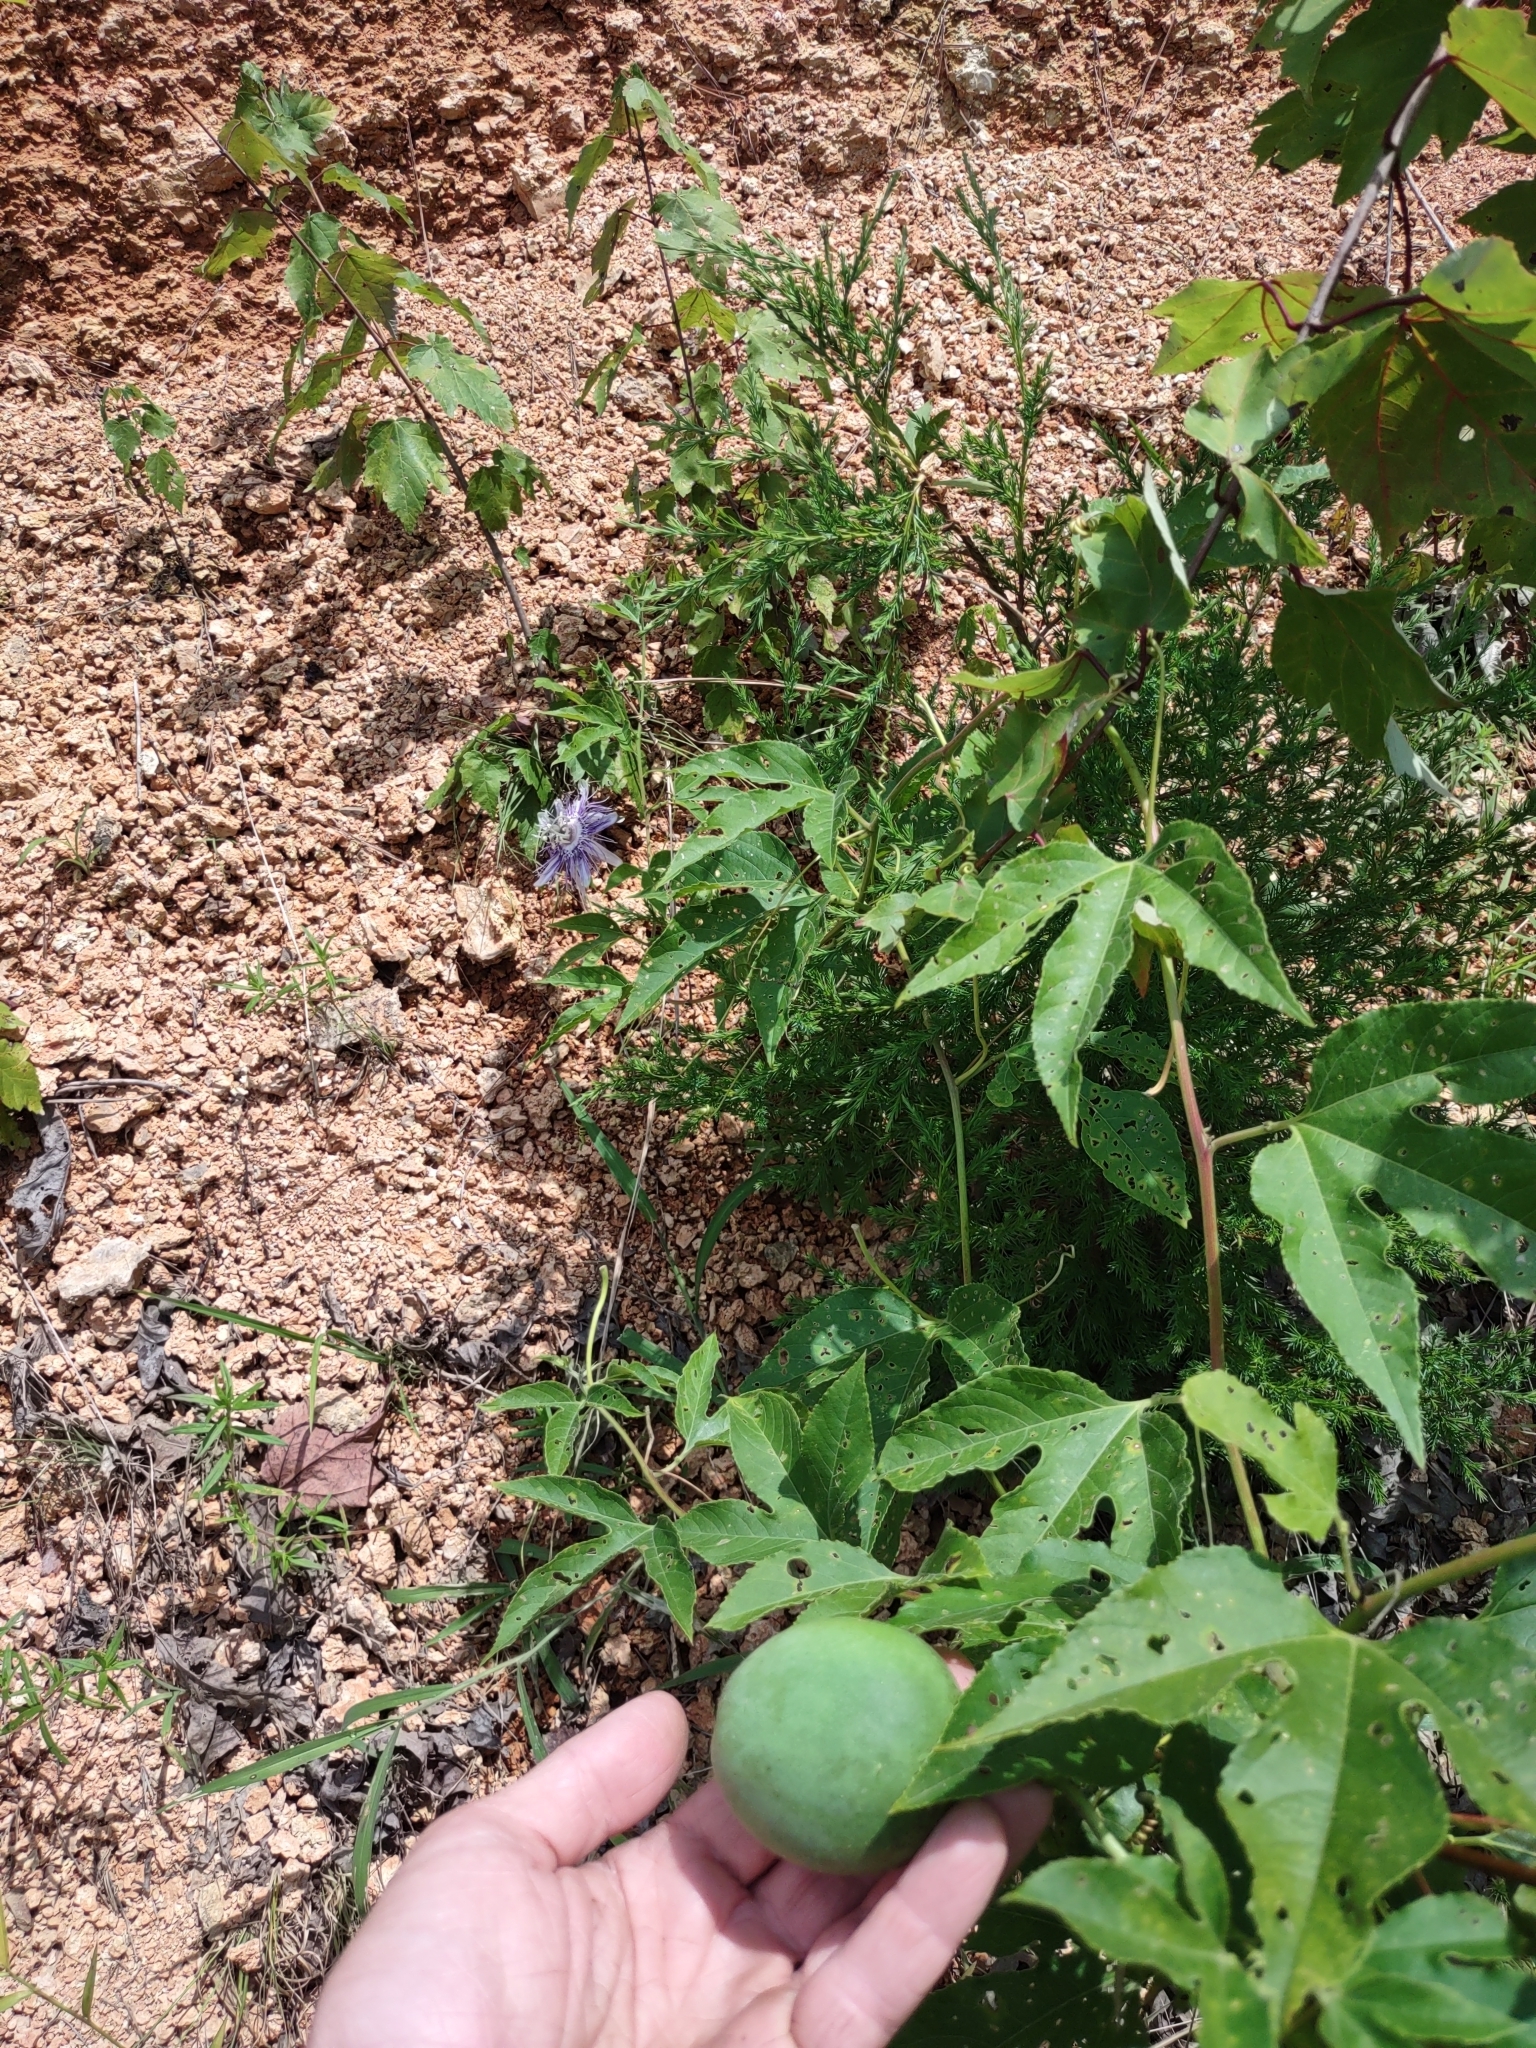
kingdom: Plantae
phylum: Tracheophyta
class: Magnoliopsida
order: Malpighiales
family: Passifloraceae
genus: Passiflora
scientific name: Passiflora incarnata
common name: Apricot-vine
